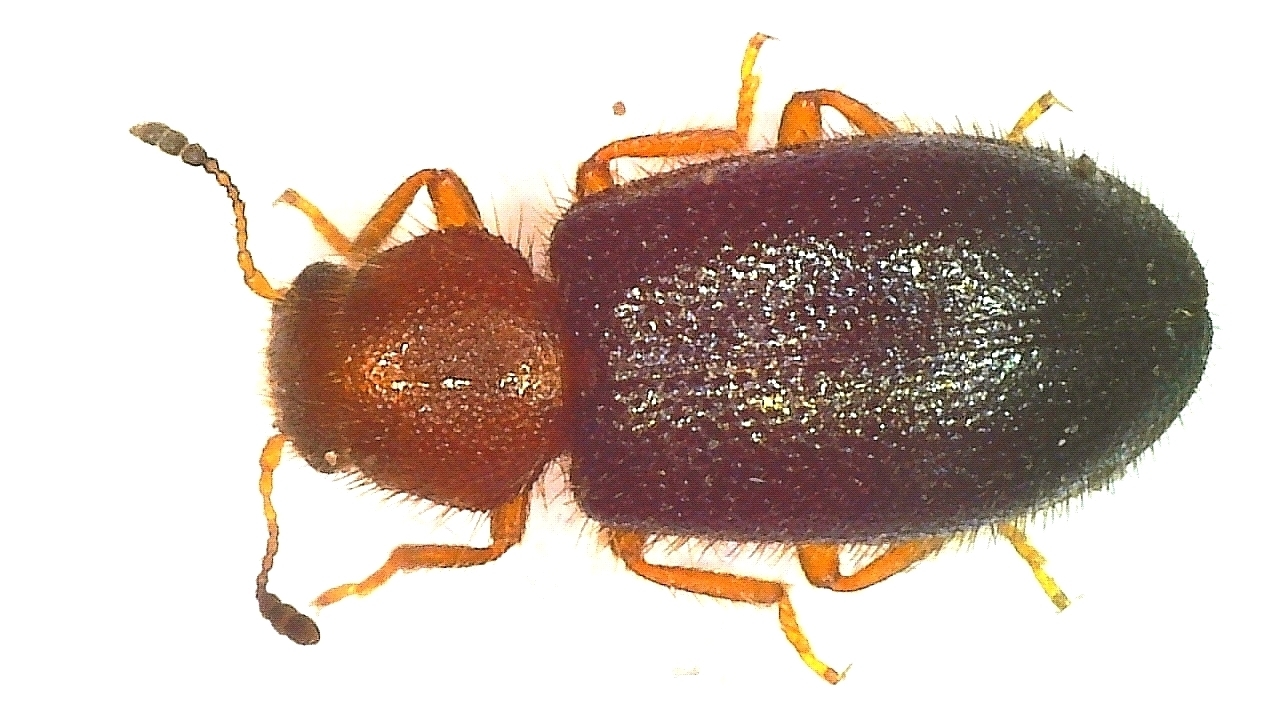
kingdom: Animalia
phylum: Arthropoda
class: Insecta
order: Coleoptera
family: Cleridae
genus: Opetiopalpus
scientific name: Opetiopalpus scutellaris
